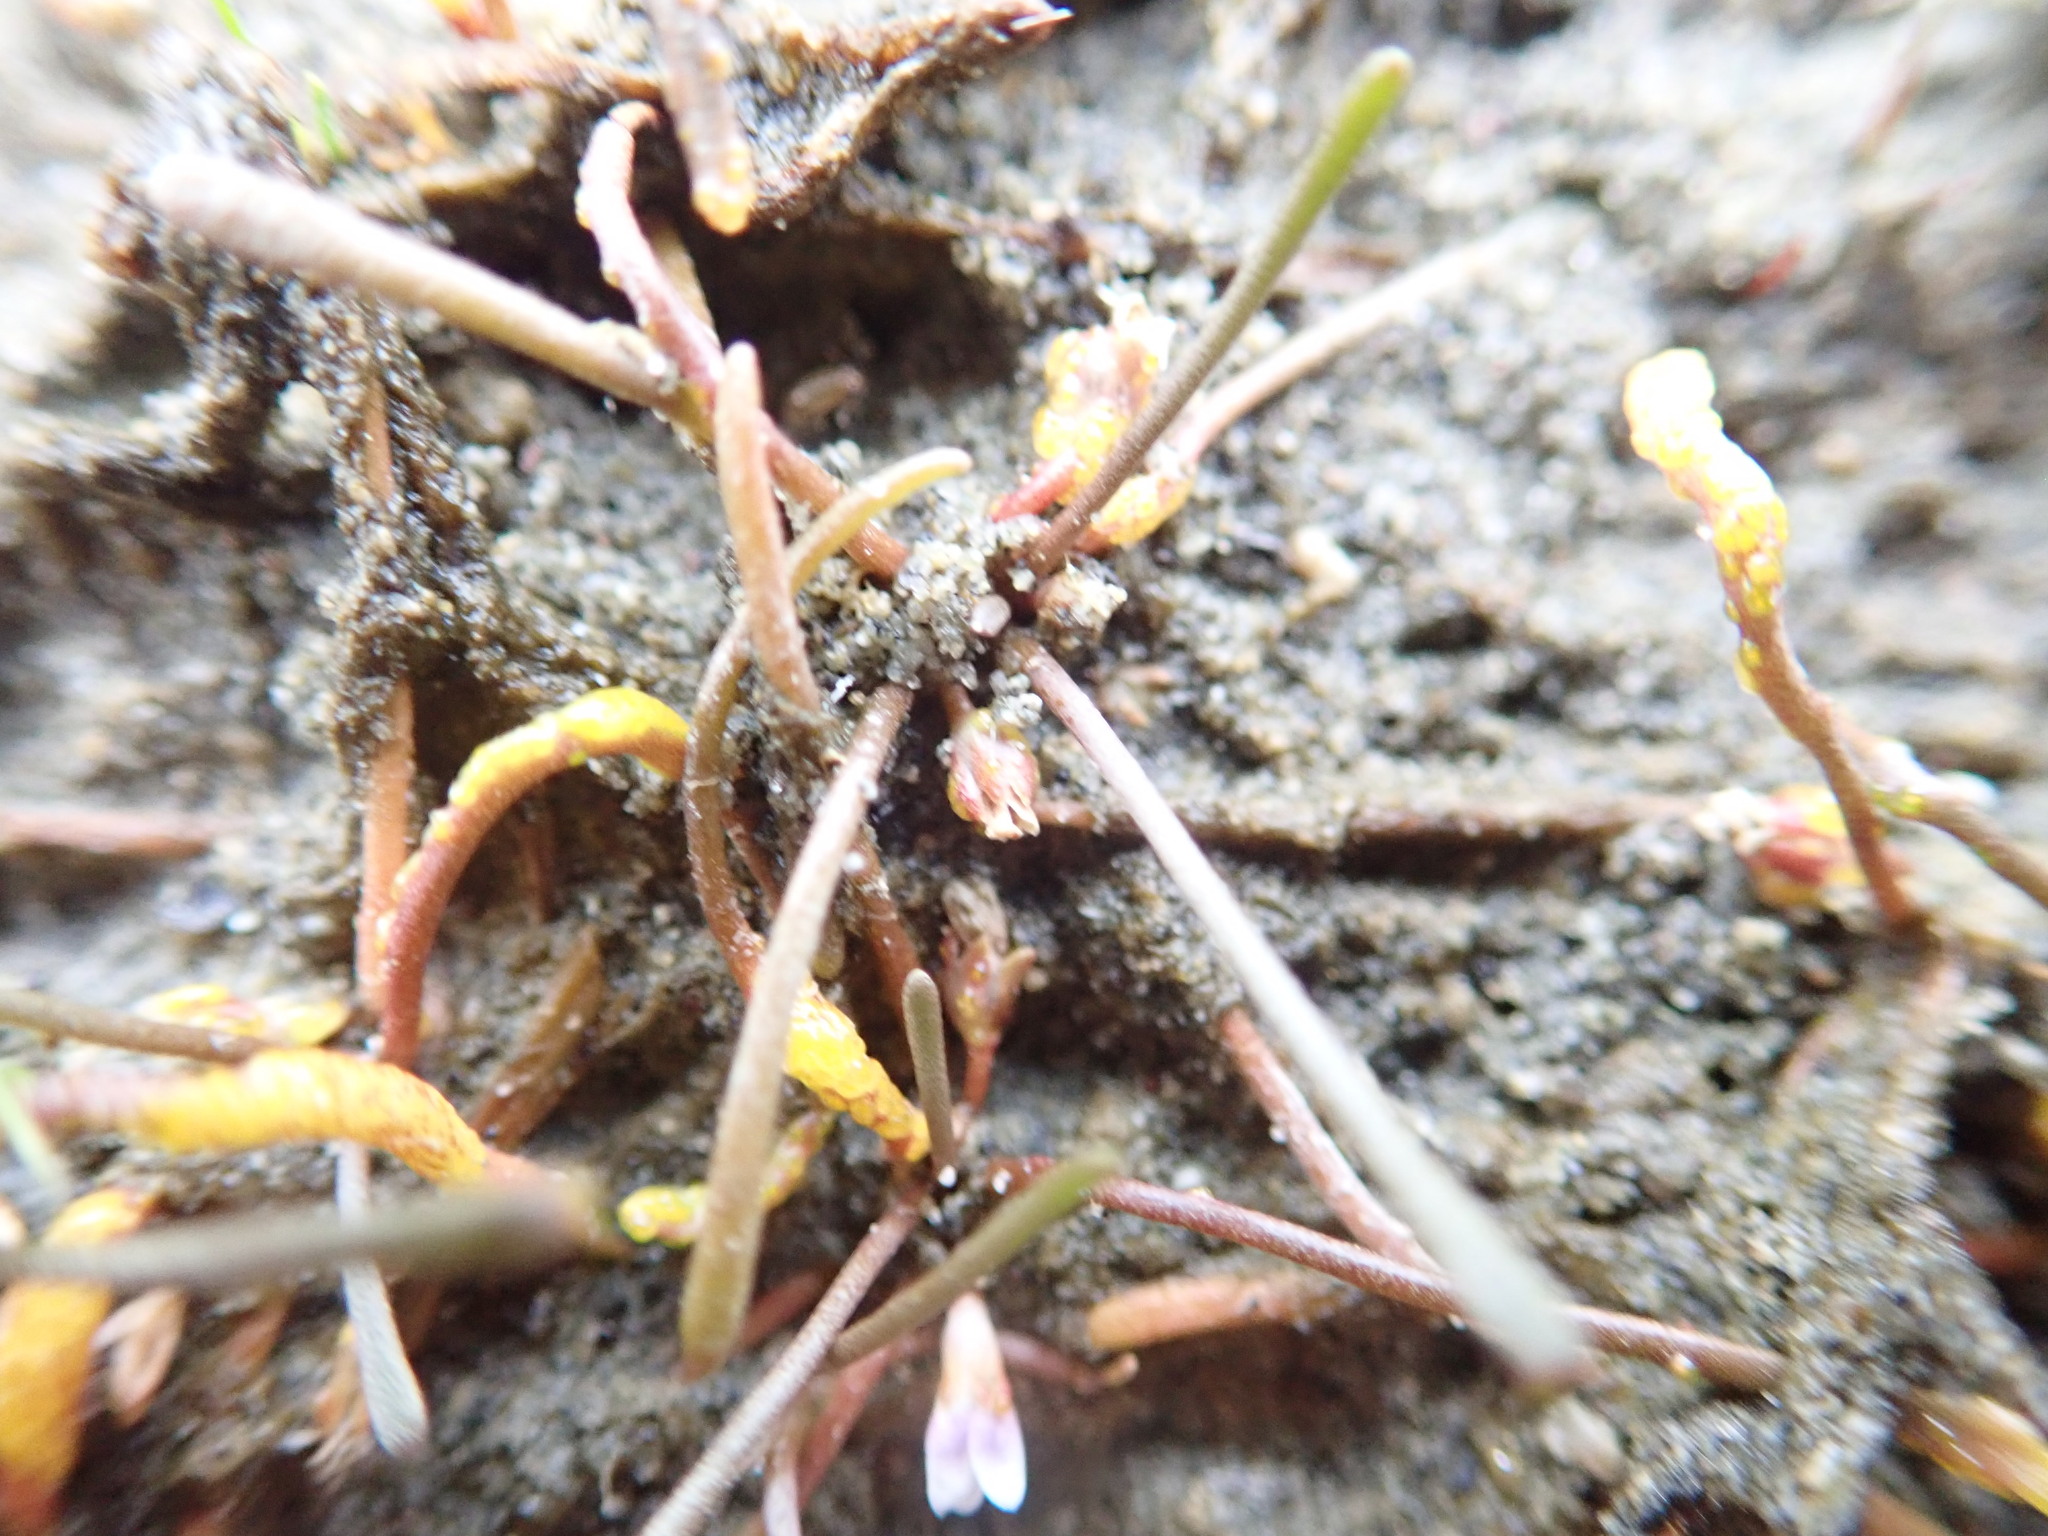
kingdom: Fungi
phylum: Chytridiomycota
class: Chytridiomycetes
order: Chytridiales
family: Synchytriaceae
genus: Synchytrium
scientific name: Synchytrium limosellae
